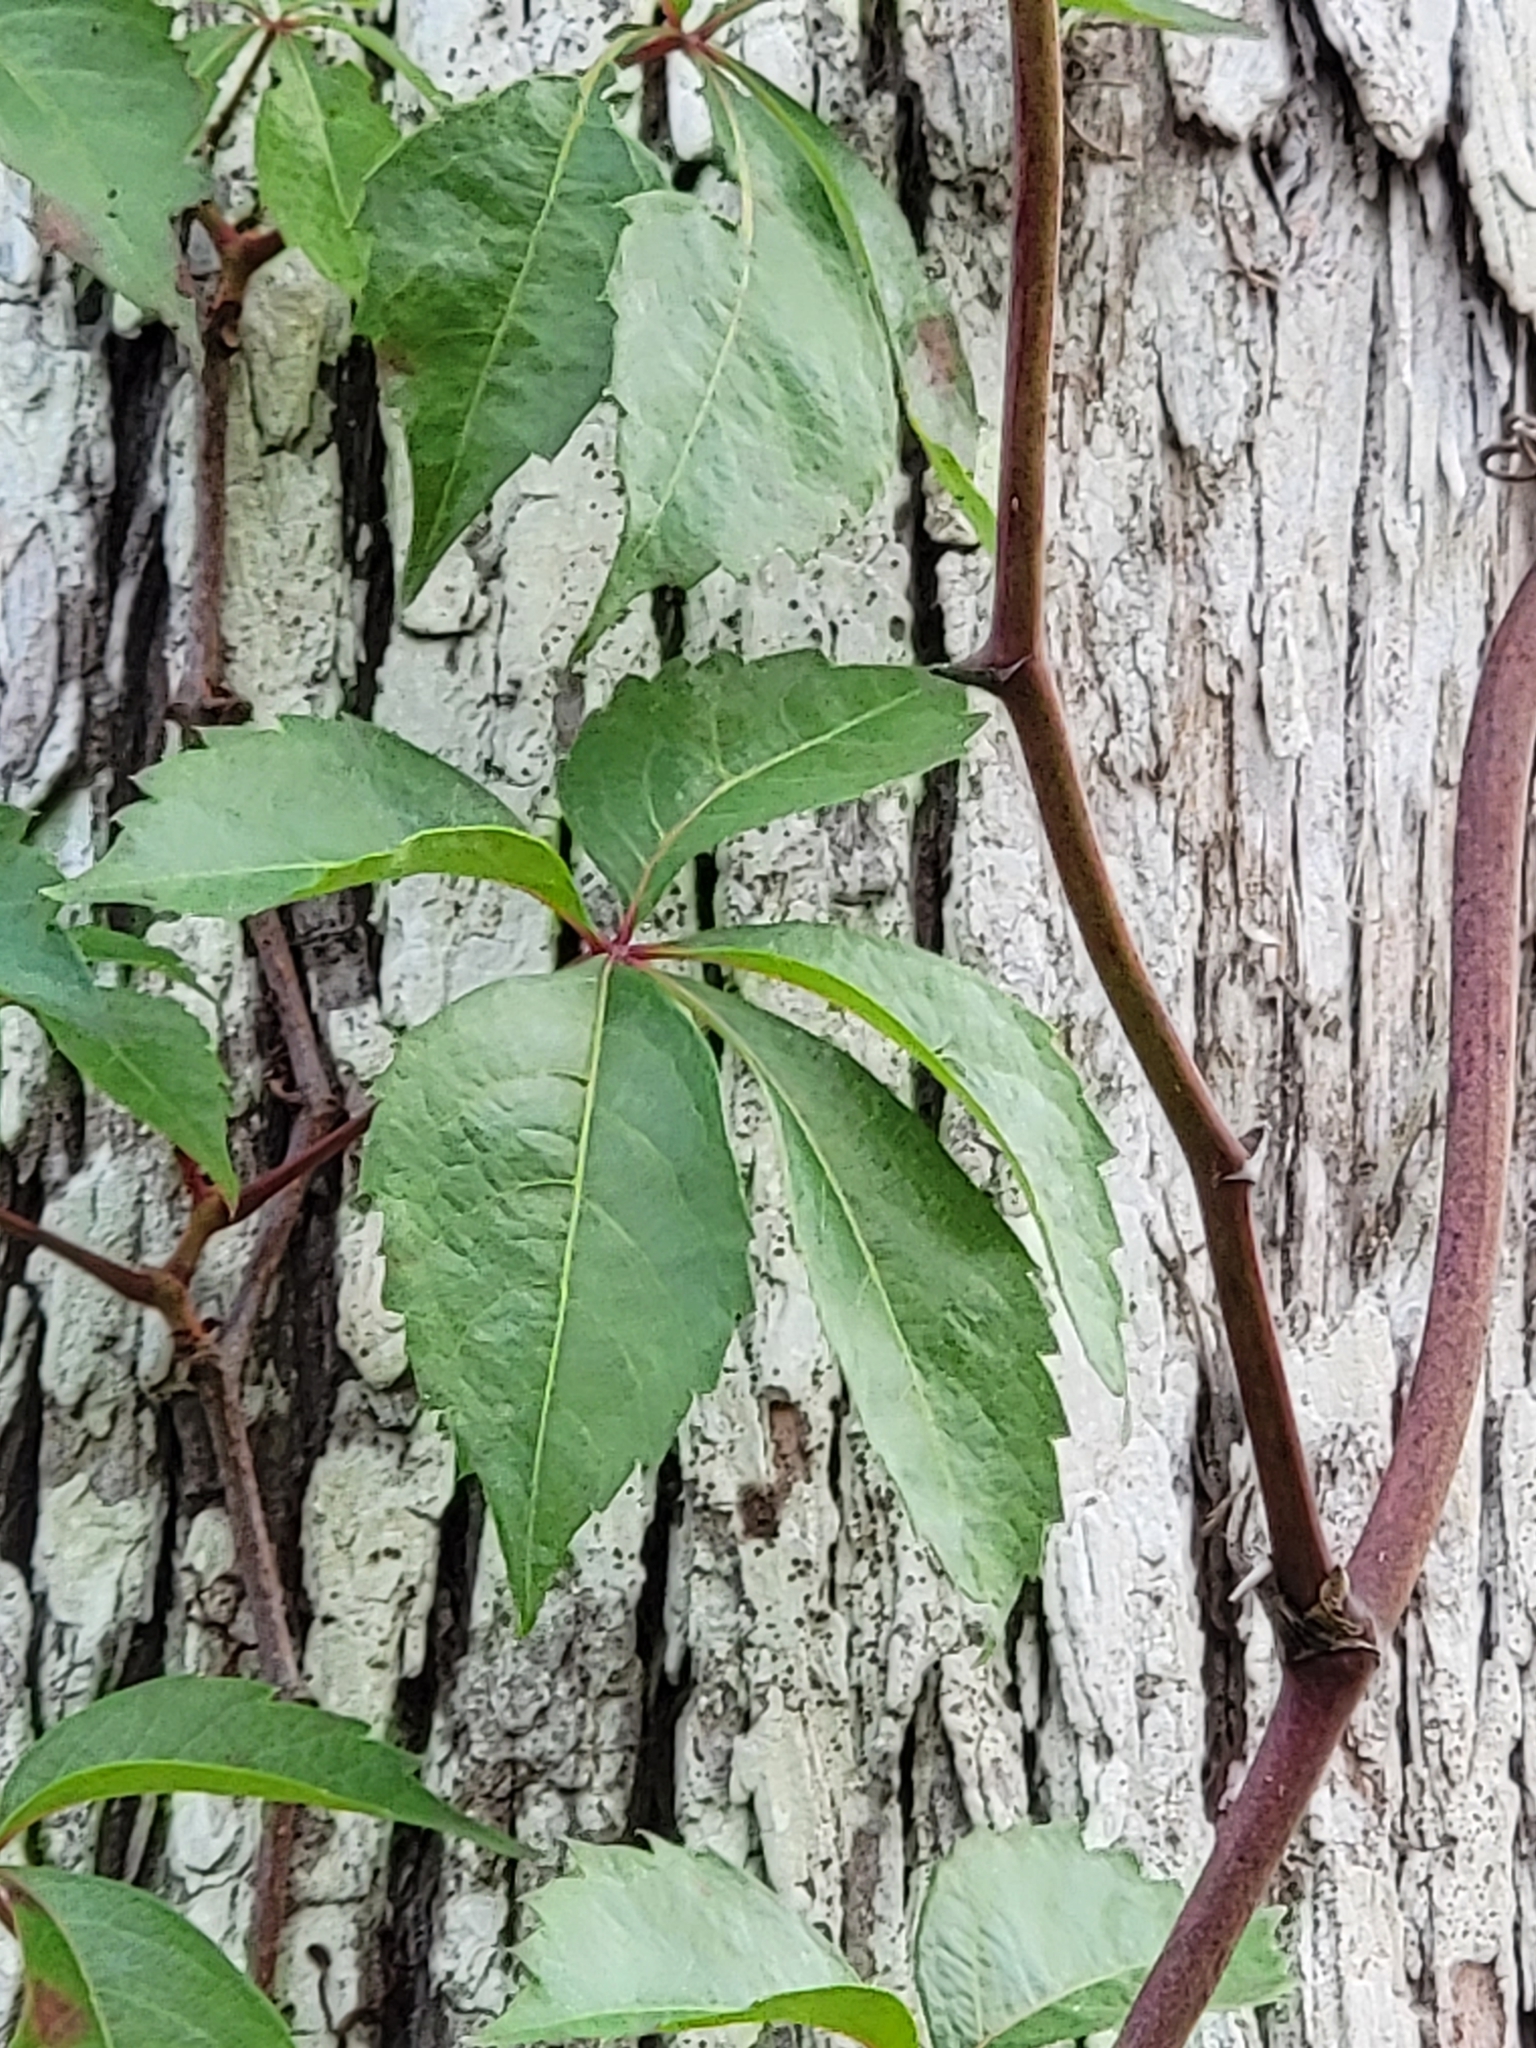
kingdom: Plantae
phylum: Tracheophyta
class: Magnoliopsida
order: Vitales
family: Vitaceae
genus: Parthenocissus
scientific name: Parthenocissus quinquefolia
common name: Virginia-creeper
